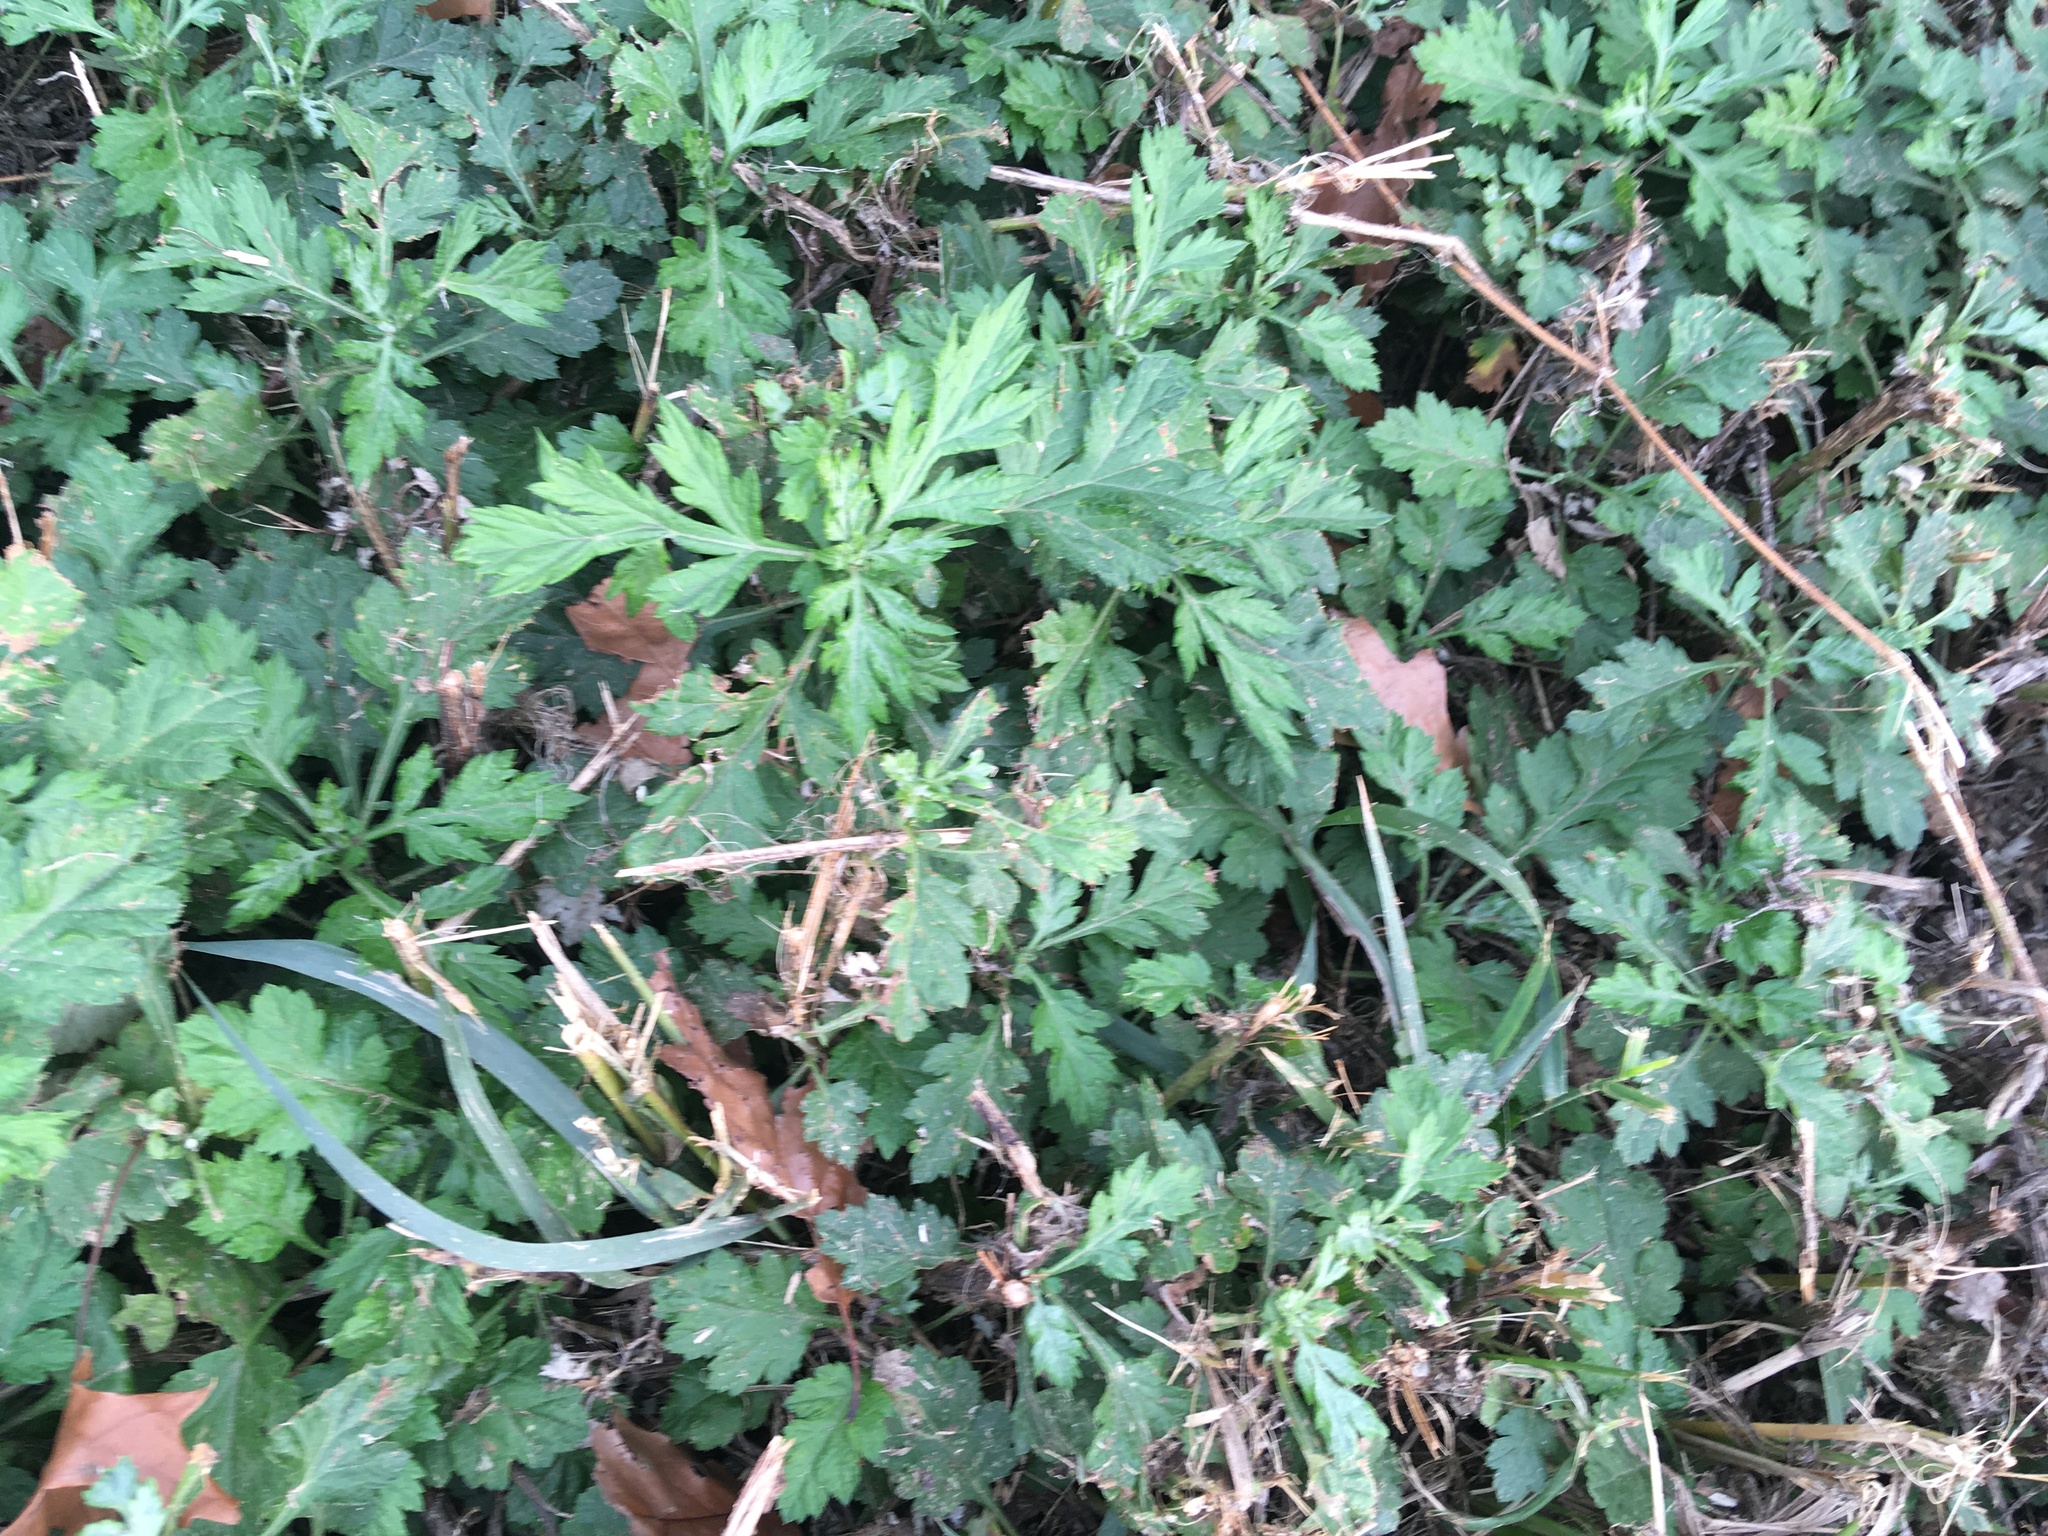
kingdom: Plantae
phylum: Tracheophyta
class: Magnoliopsida
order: Asterales
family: Asteraceae
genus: Artemisia
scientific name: Artemisia vulgaris
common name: Mugwort
